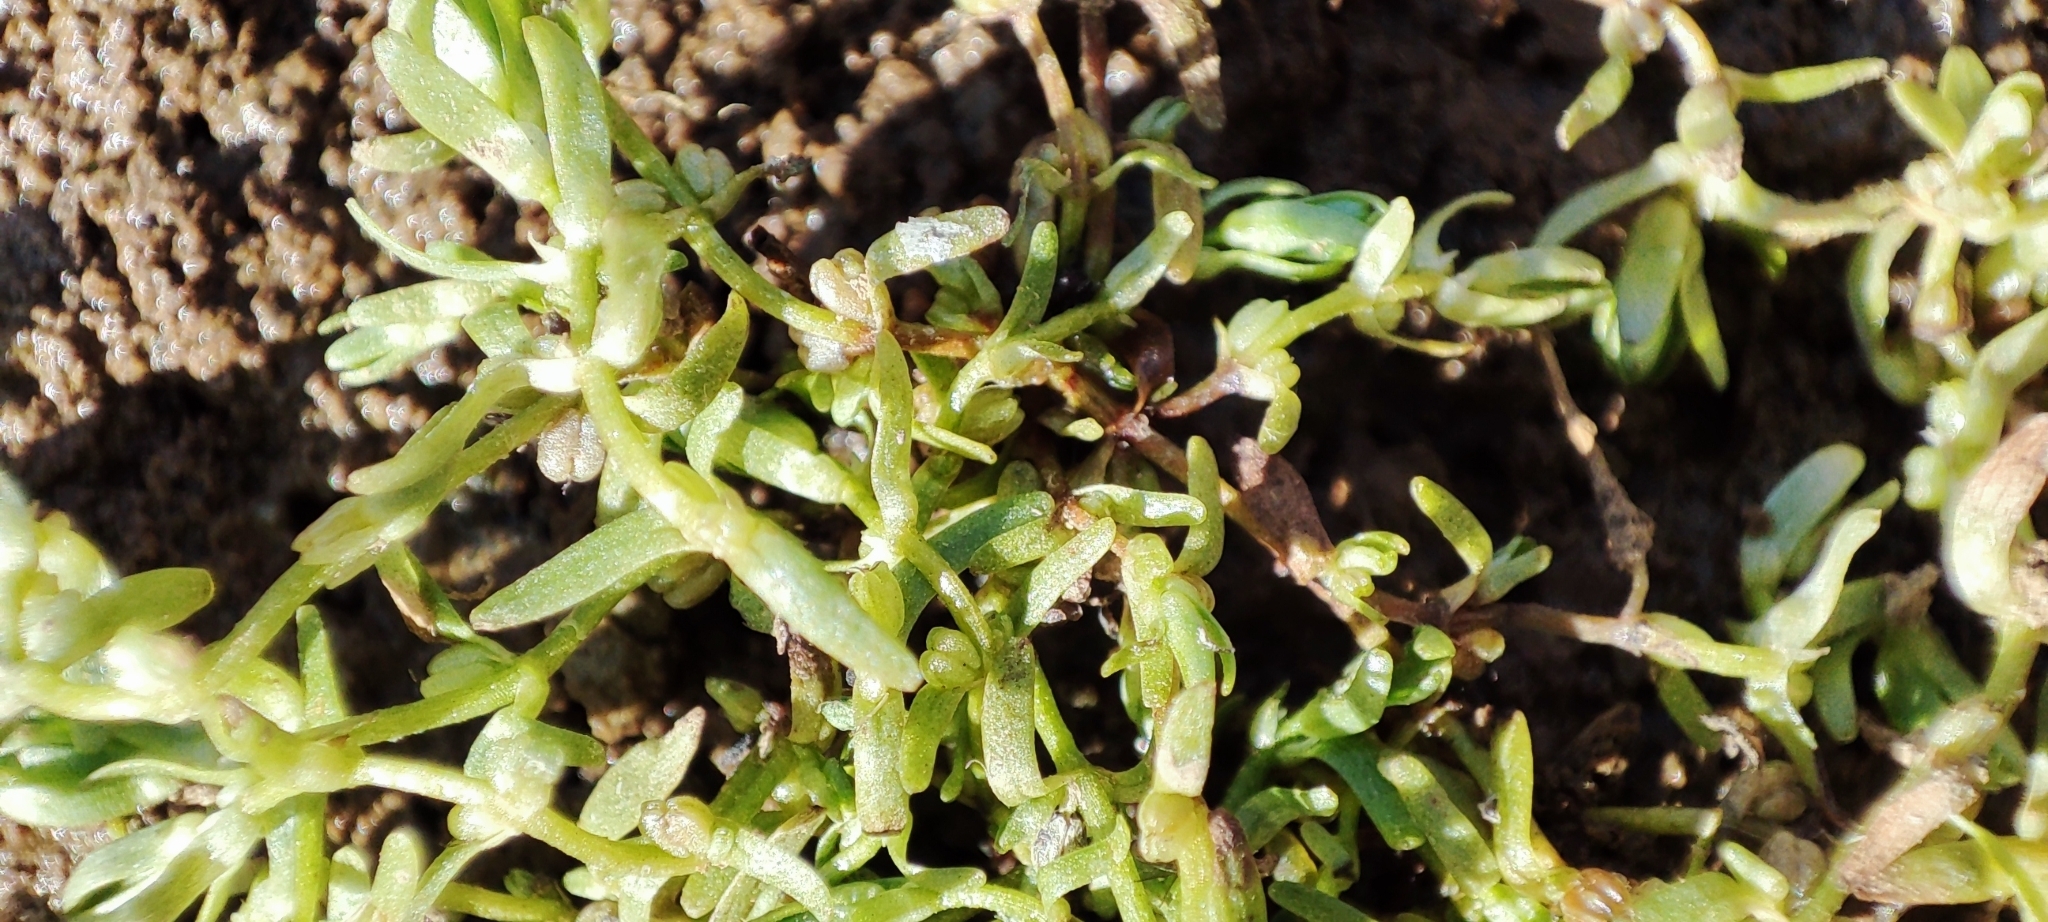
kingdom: Plantae
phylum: Tracheophyta
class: Magnoliopsida
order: Lamiales
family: Plantaginaceae
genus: Callitriche
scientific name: Callitriche palustris
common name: Spring water-starwort
